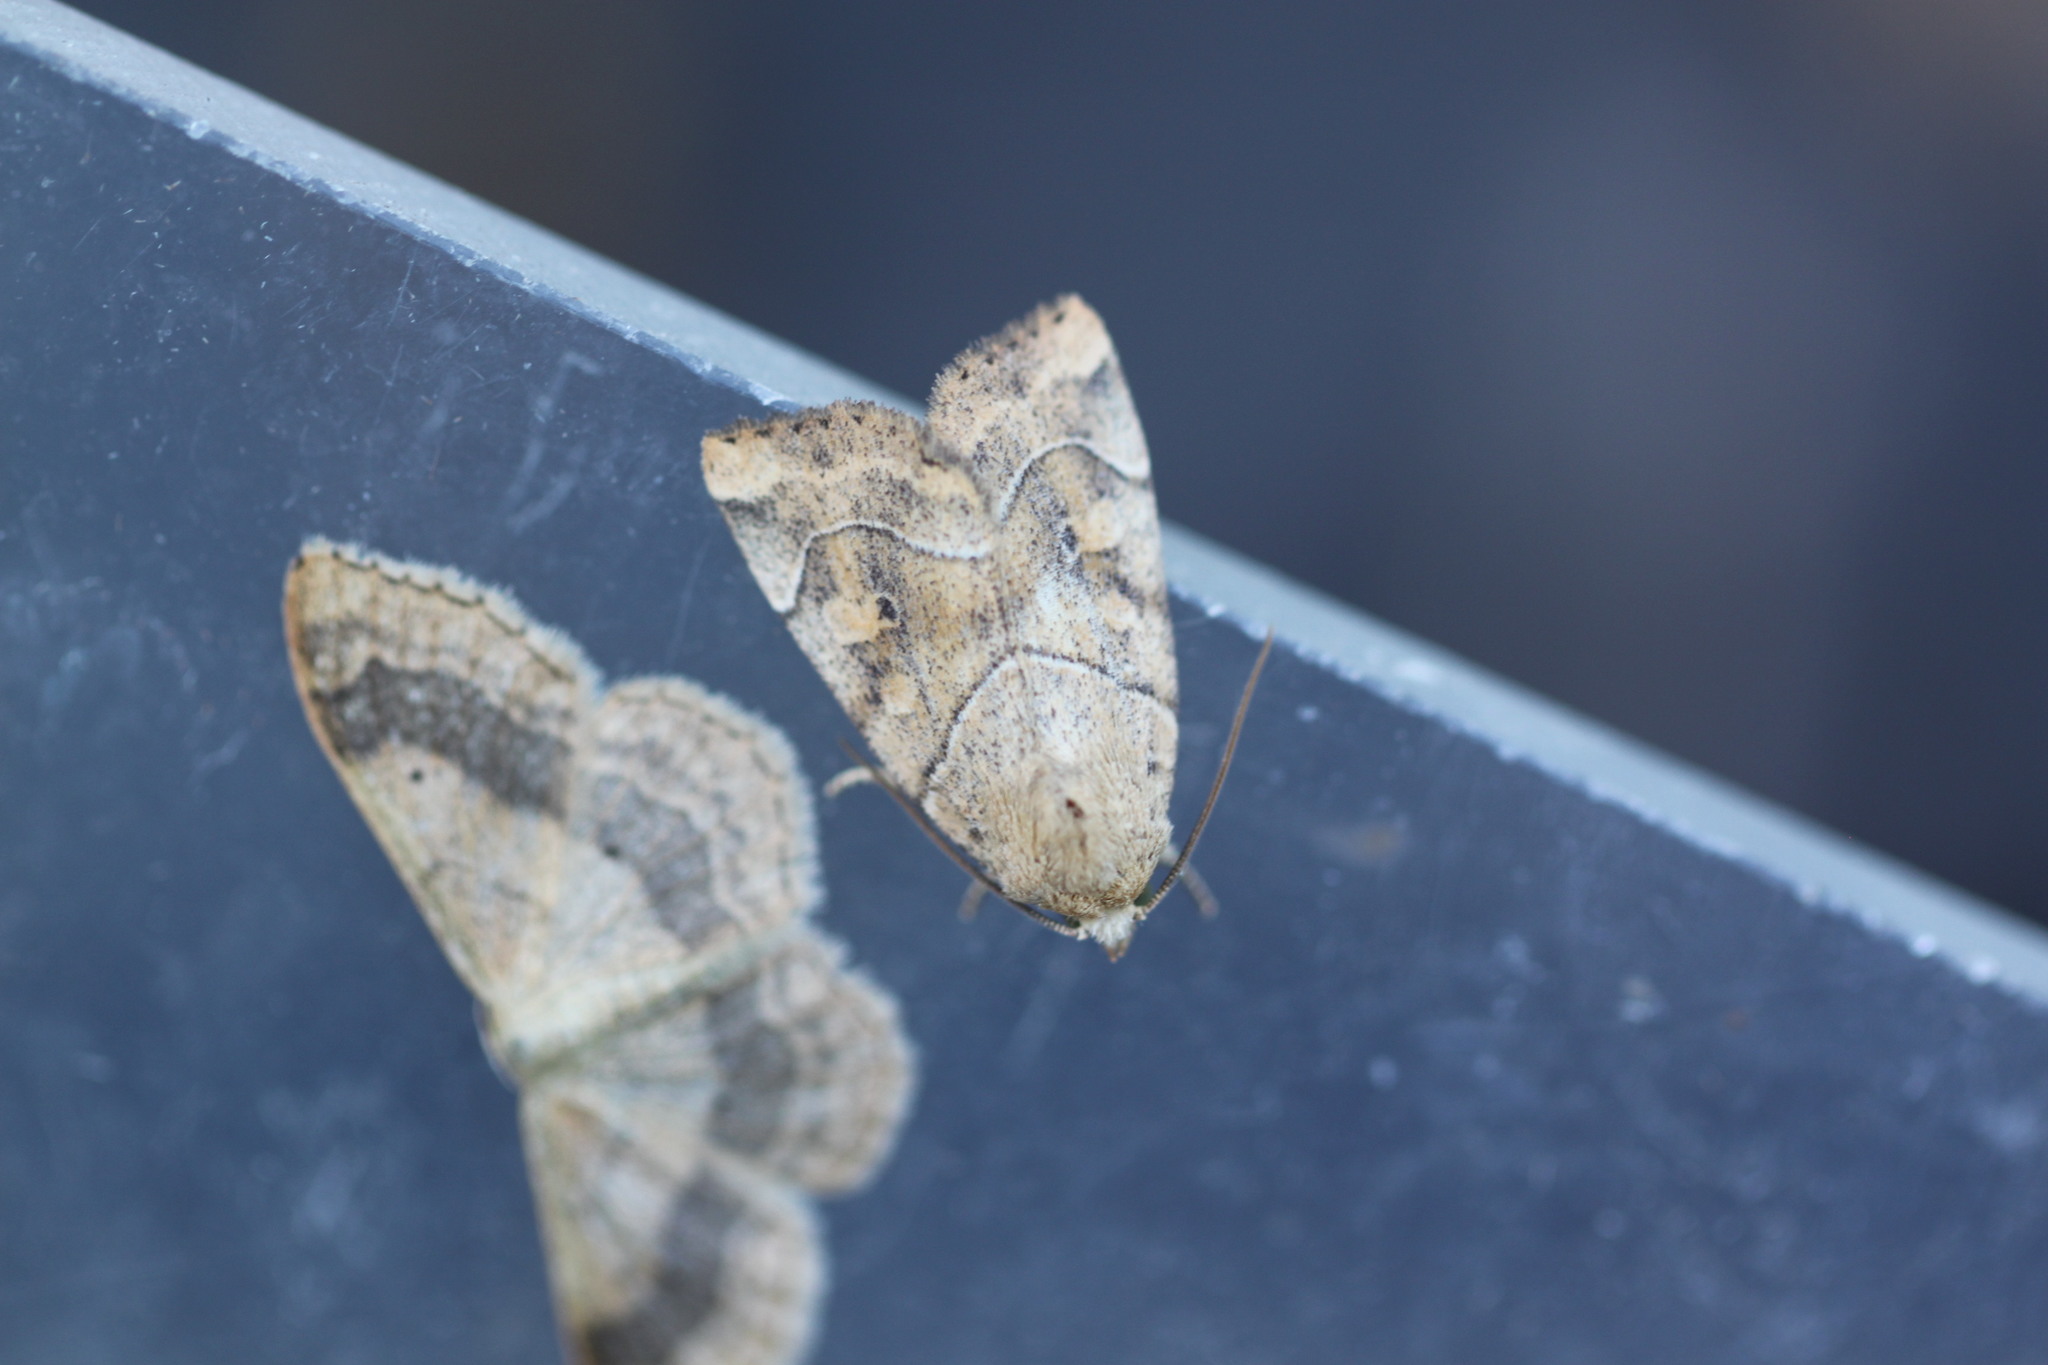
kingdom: Animalia
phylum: Arthropoda
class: Insecta
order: Lepidoptera
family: Noctuidae
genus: Cosmia
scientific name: Cosmia trapezina
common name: Dun-bar
